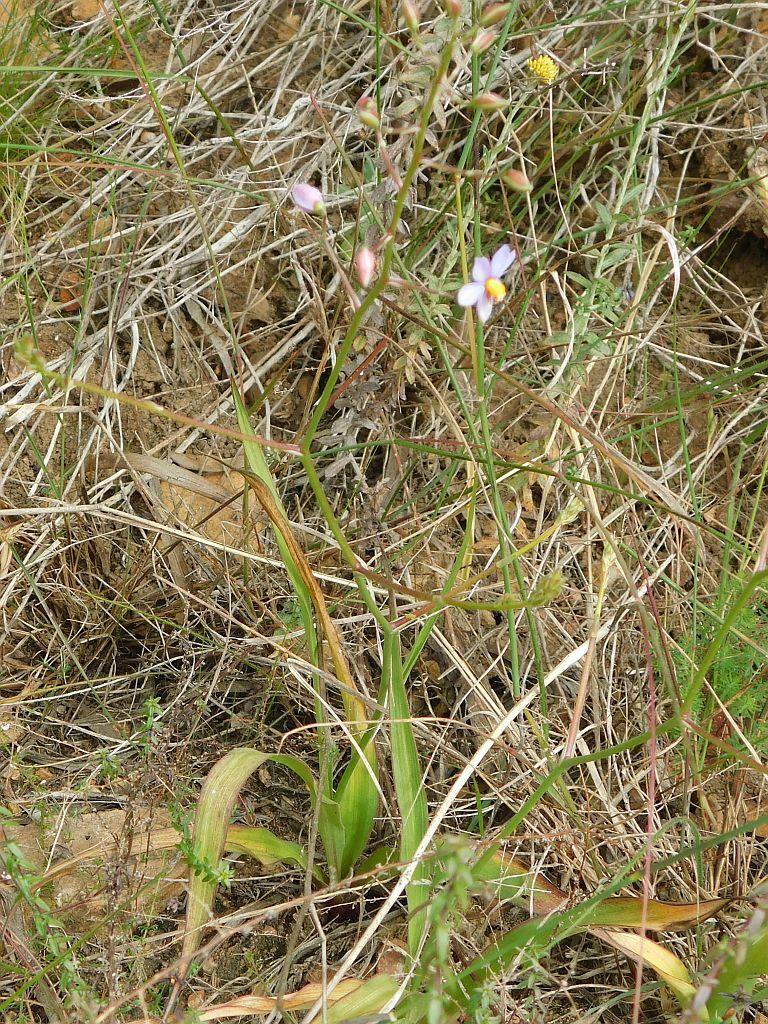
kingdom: Plantae
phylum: Tracheophyta
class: Liliopsida
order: Asparagales
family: Tecophilaeaceae
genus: Cyanella
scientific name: Cyanella hyacinthoides
